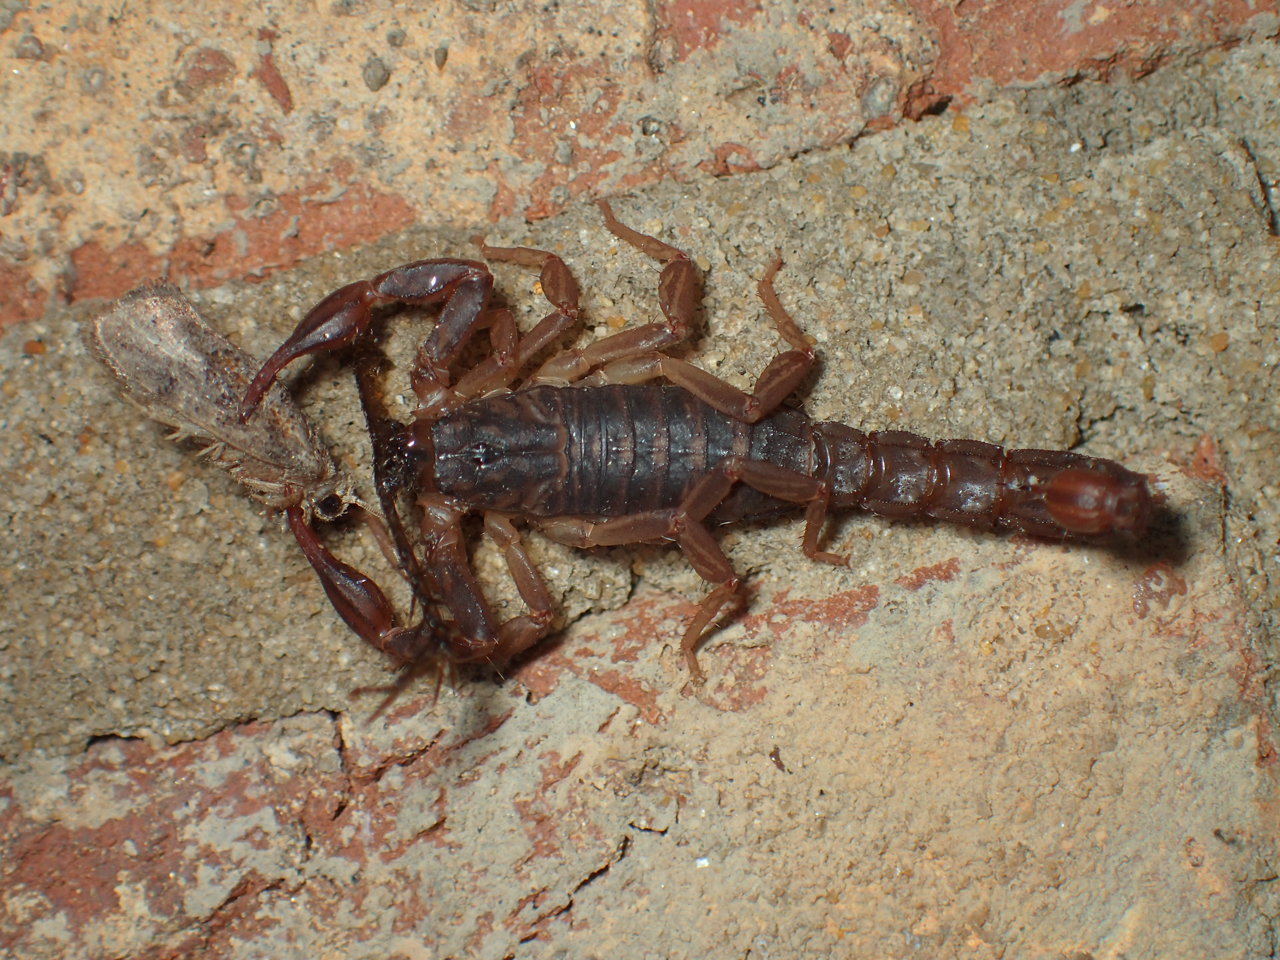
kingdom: Animalia
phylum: Arthropoda
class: Arachnida
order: Scorpiones
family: Vaejovidae
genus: Vaejovis
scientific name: Vaejovis carolinianus
